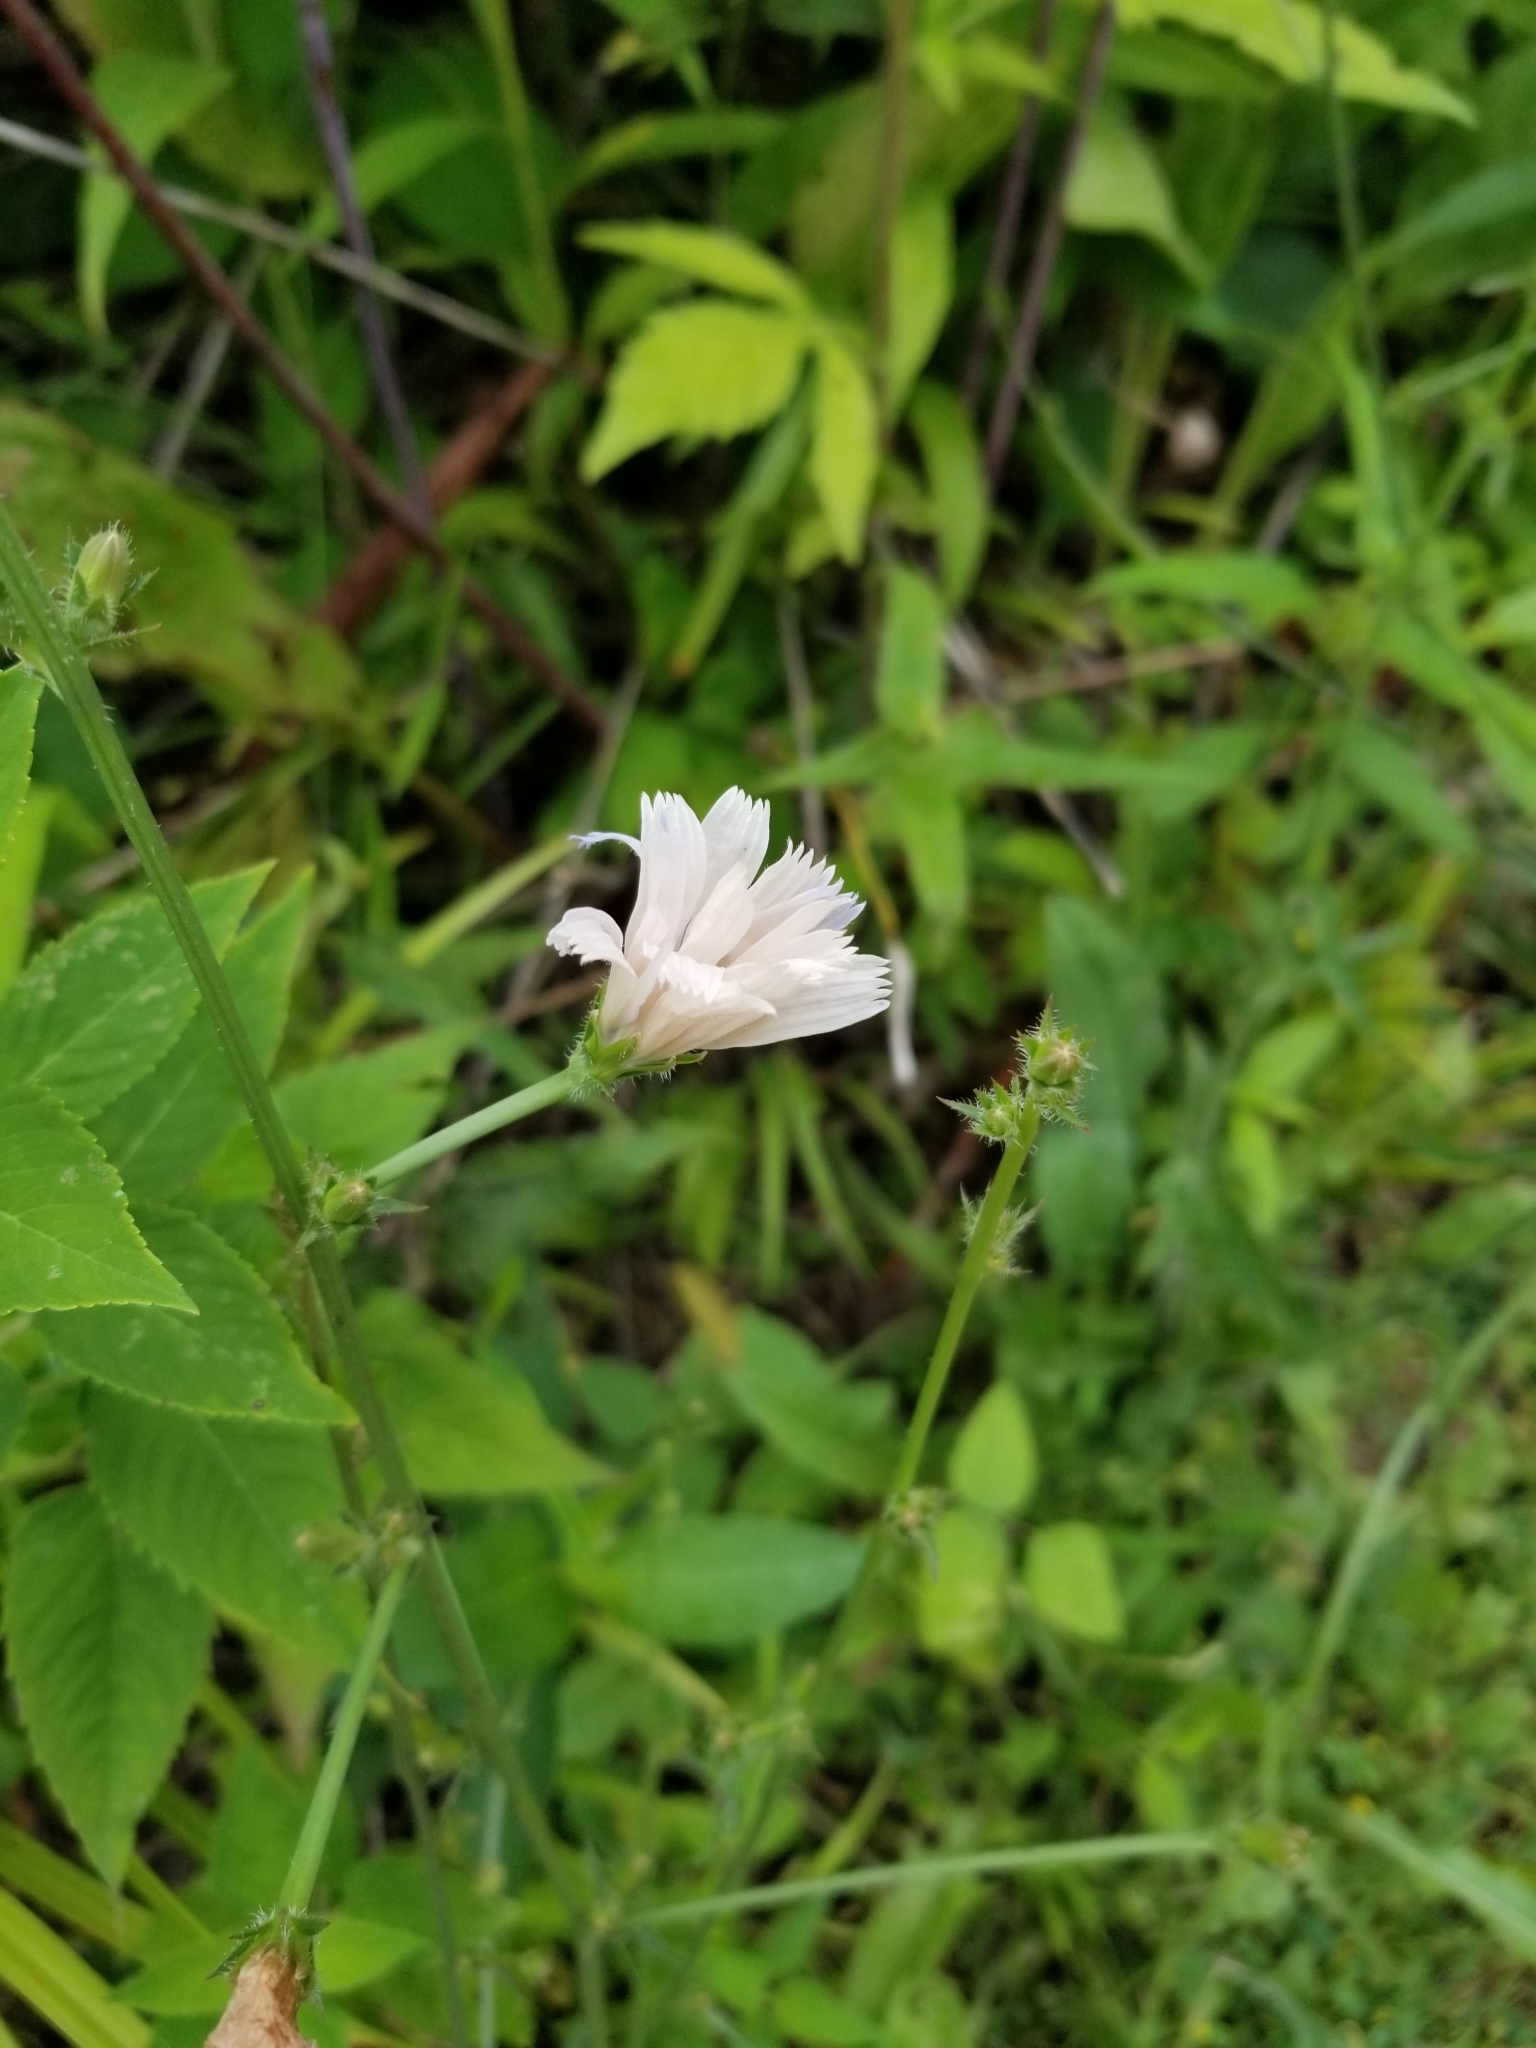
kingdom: Plantae
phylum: Tracheophyta
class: Magnoliopsida
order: Asterales
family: Asteraceae
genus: Cichorium
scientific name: Cichorium intybus
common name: Chicory
